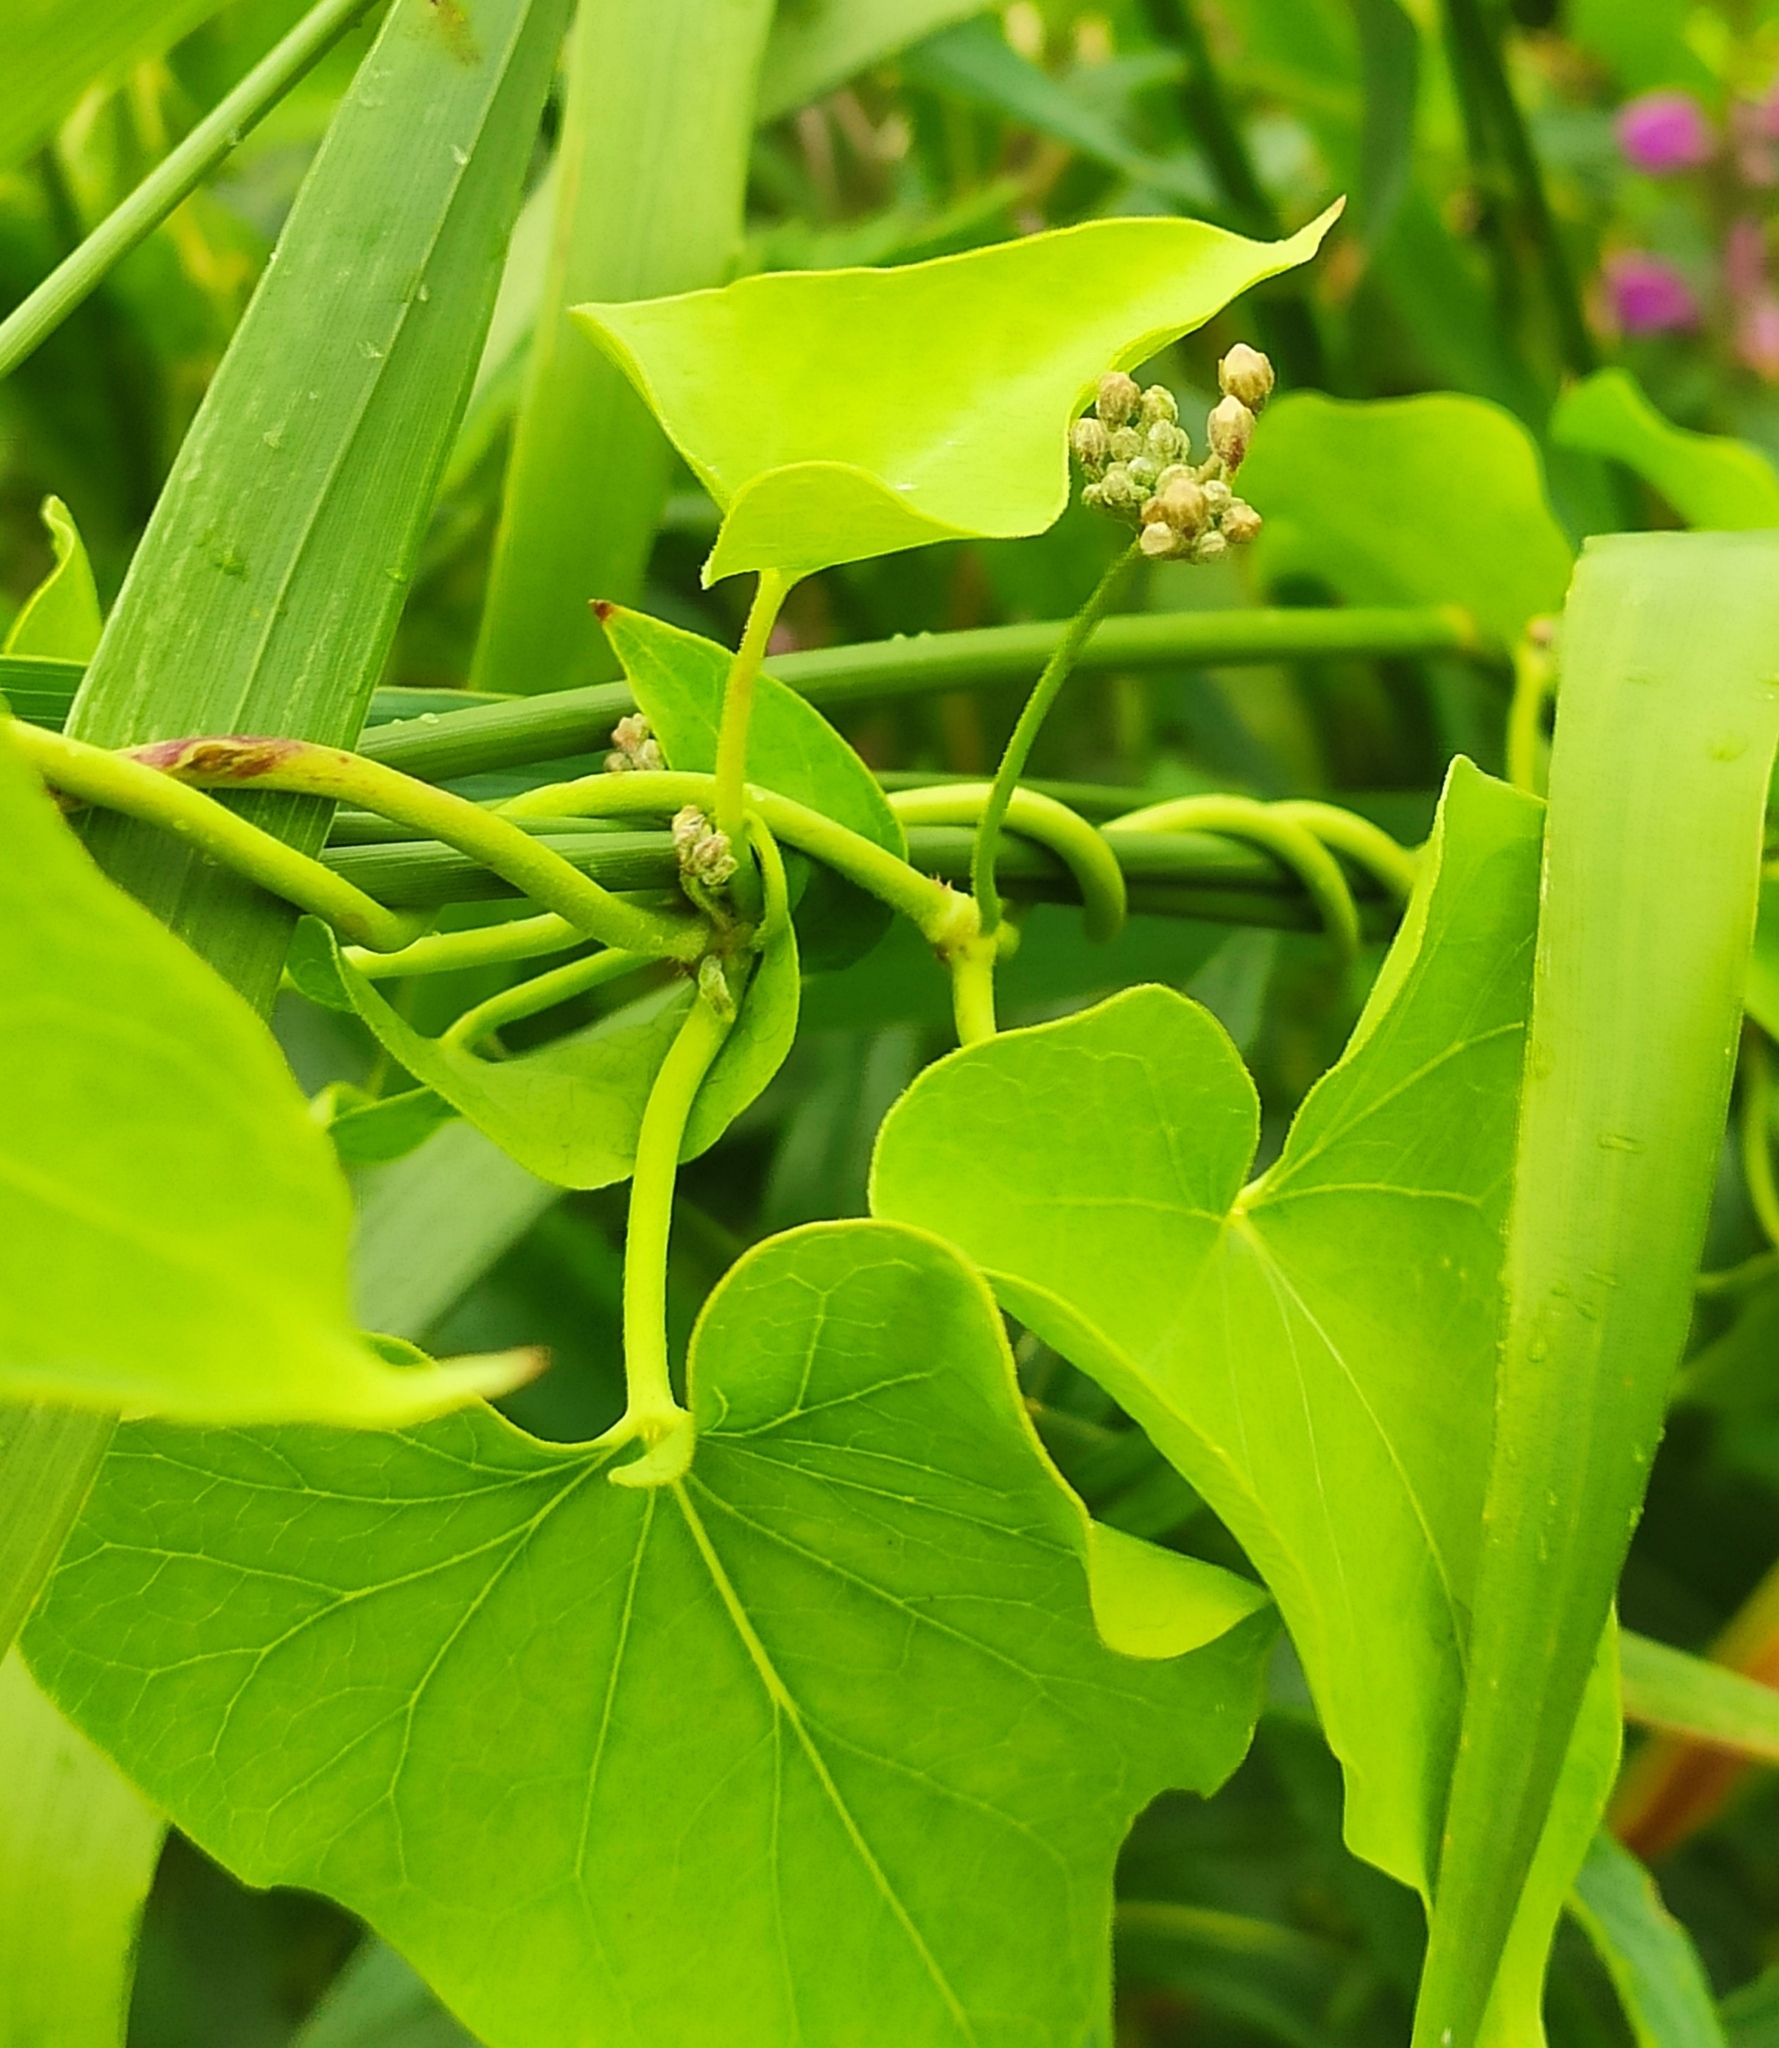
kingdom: Plantae
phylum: Tracheophyta
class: Magnoliopsida
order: Gentianales
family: Apocynaceae
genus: Cynanchum
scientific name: Cynanchum acutum
